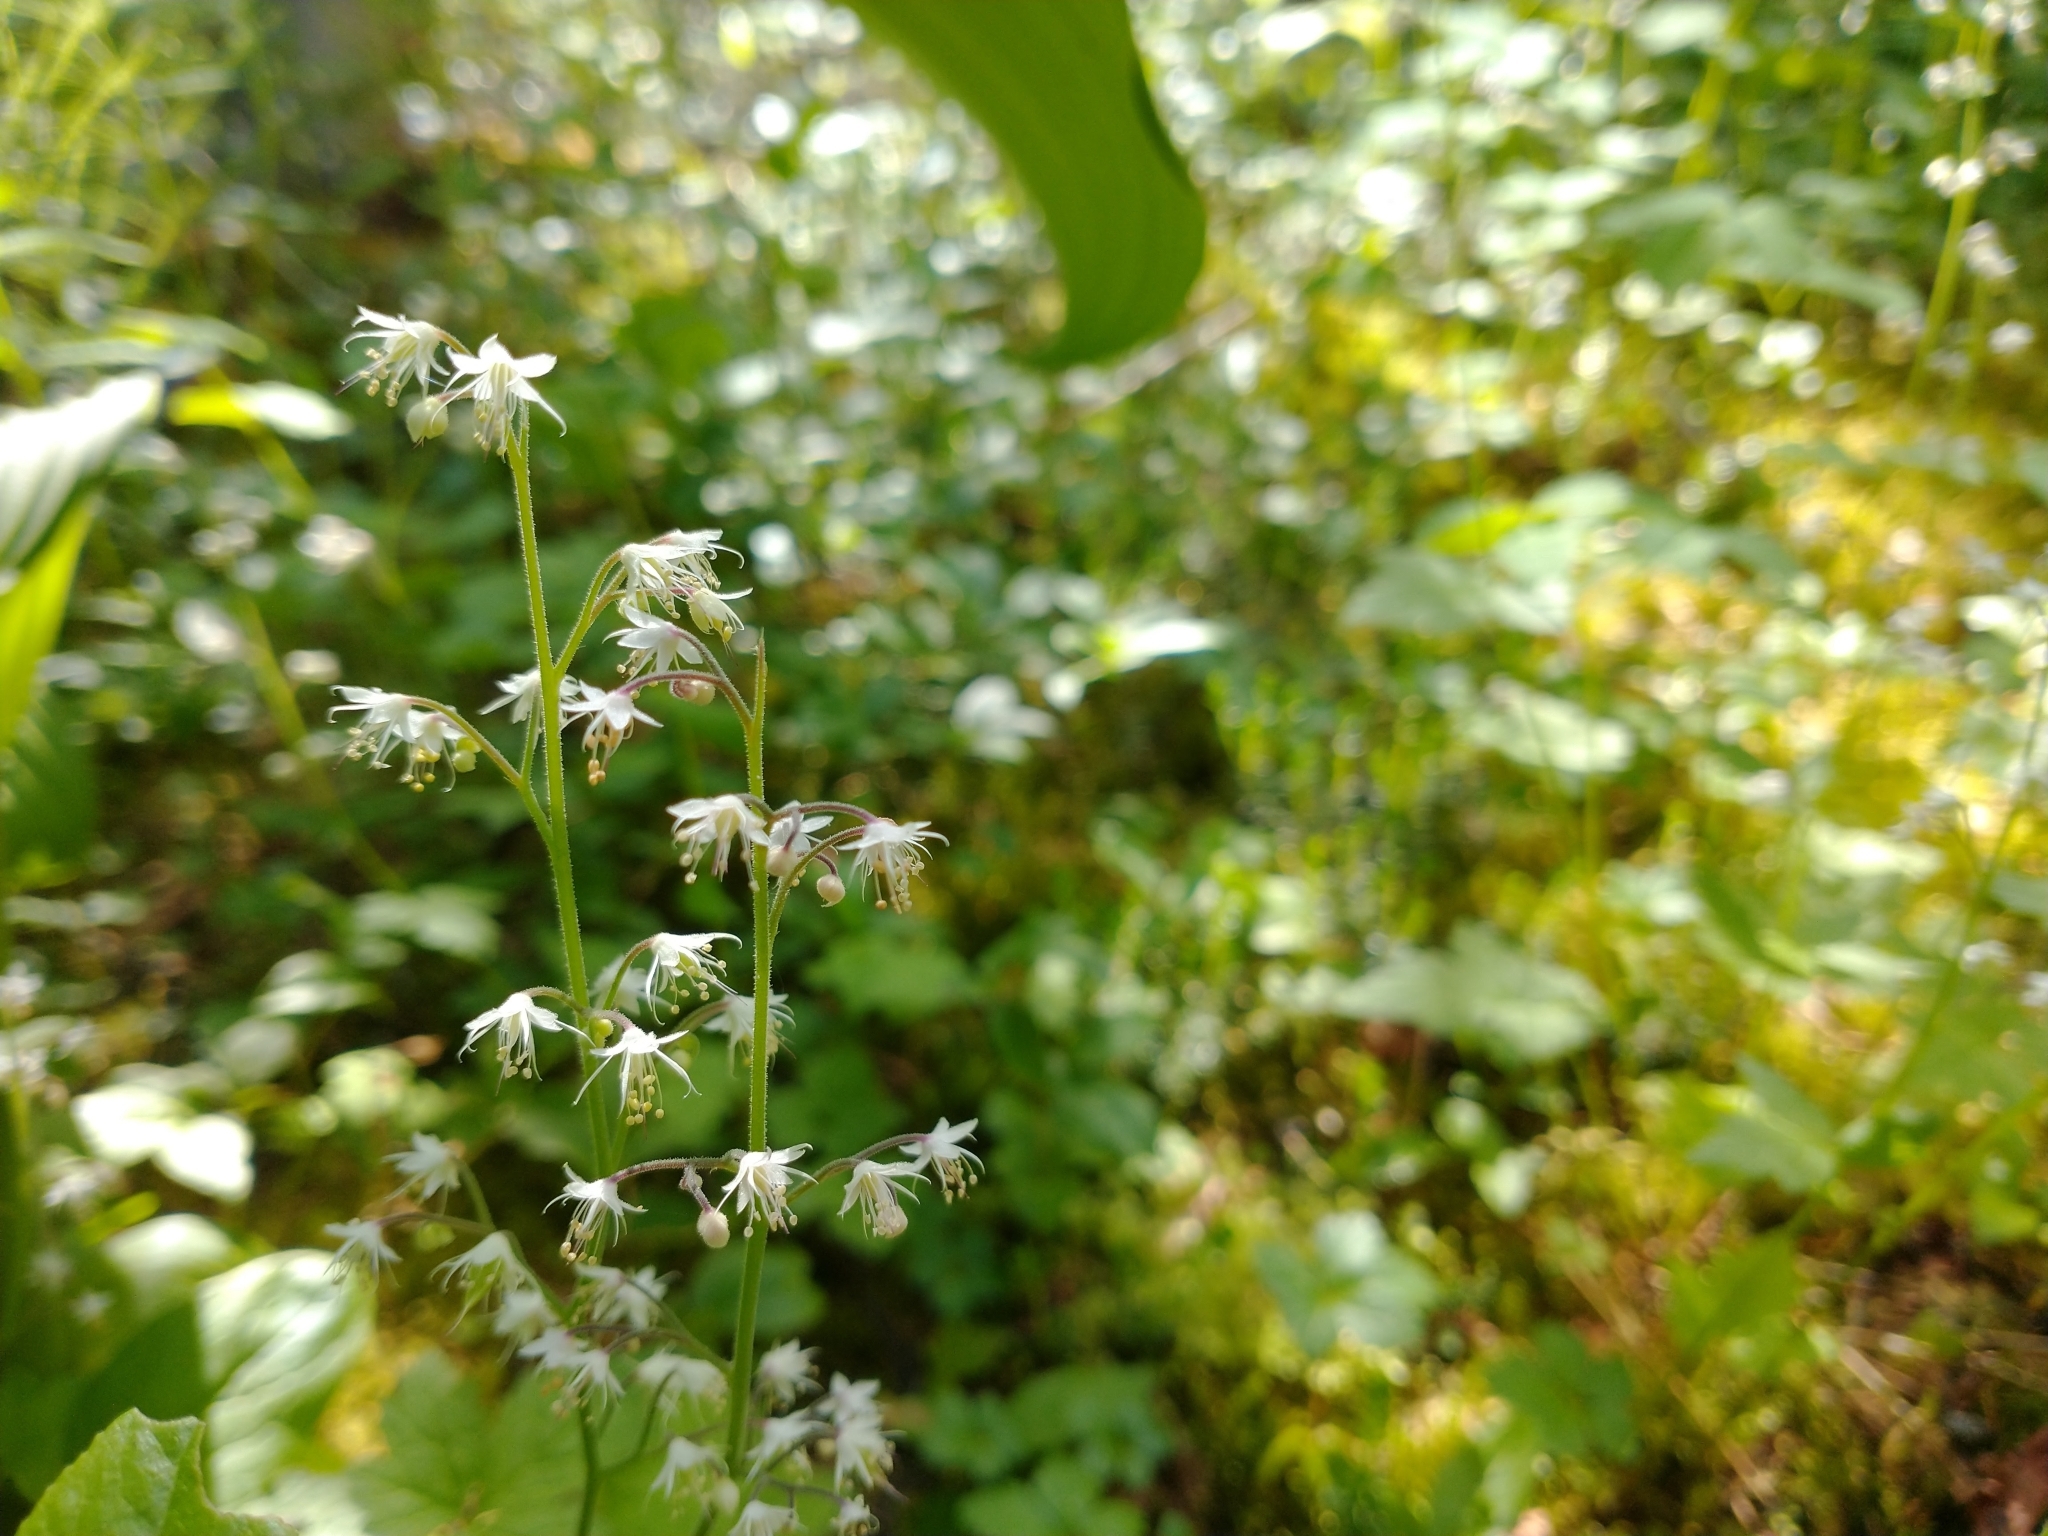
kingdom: Plantae
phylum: Tracheophyta
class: Magnoliopsida
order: Saxifragales
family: Saxifragaceae
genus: Tiarella
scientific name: Tiarella trifoliata
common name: Sugar-scoop
